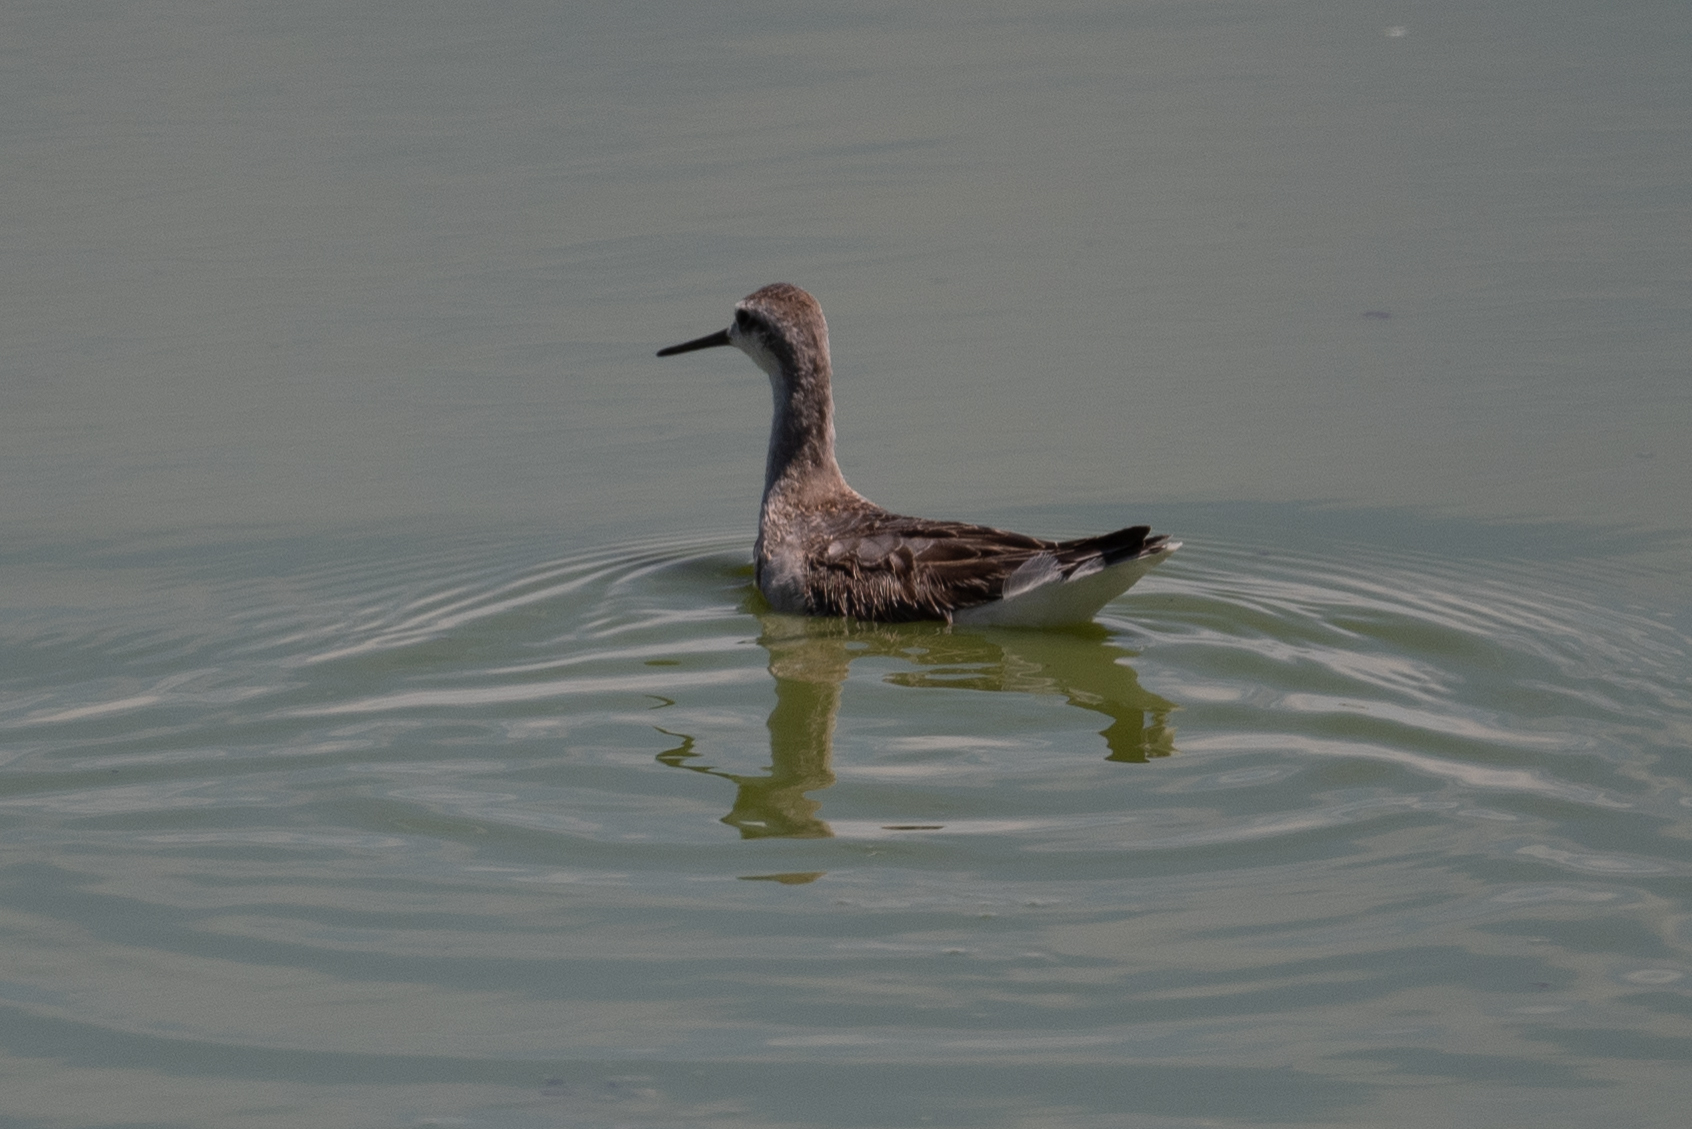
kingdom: Animalia
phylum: Chordata
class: Aves
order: Charadriiformes
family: Scolopacidae
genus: Phalaropus
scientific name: Phalaropus tricolor
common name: Wilson's phalarope
